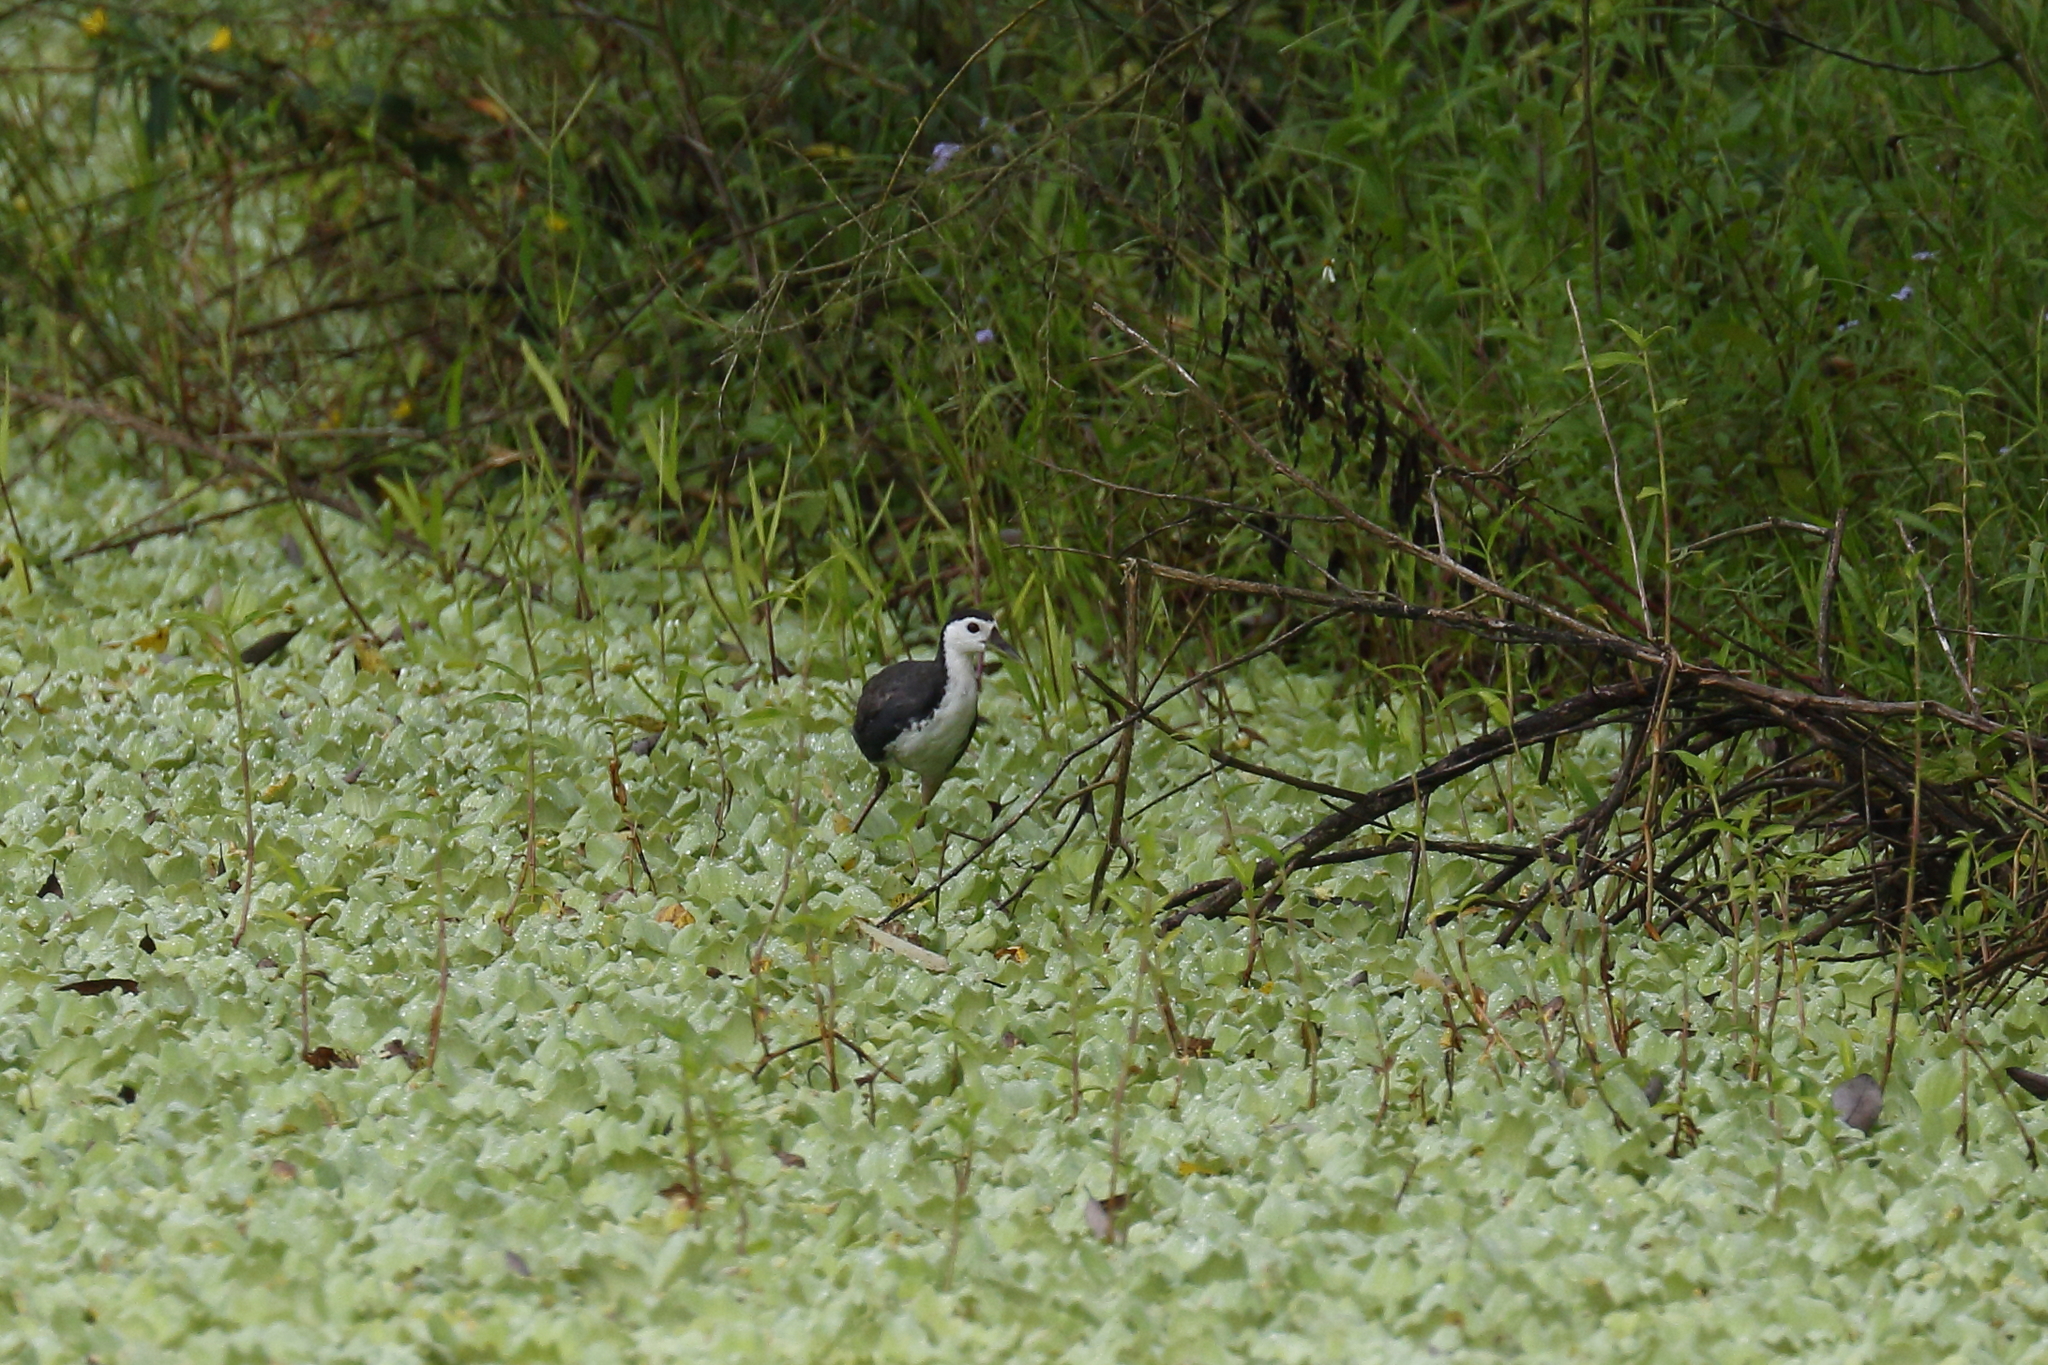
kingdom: Animalia
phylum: Chordata
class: Aves
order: Gruiformes
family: Rallidae
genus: Amaurornis
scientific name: Amaurornis phoenicurus
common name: White-breasted waterhen
